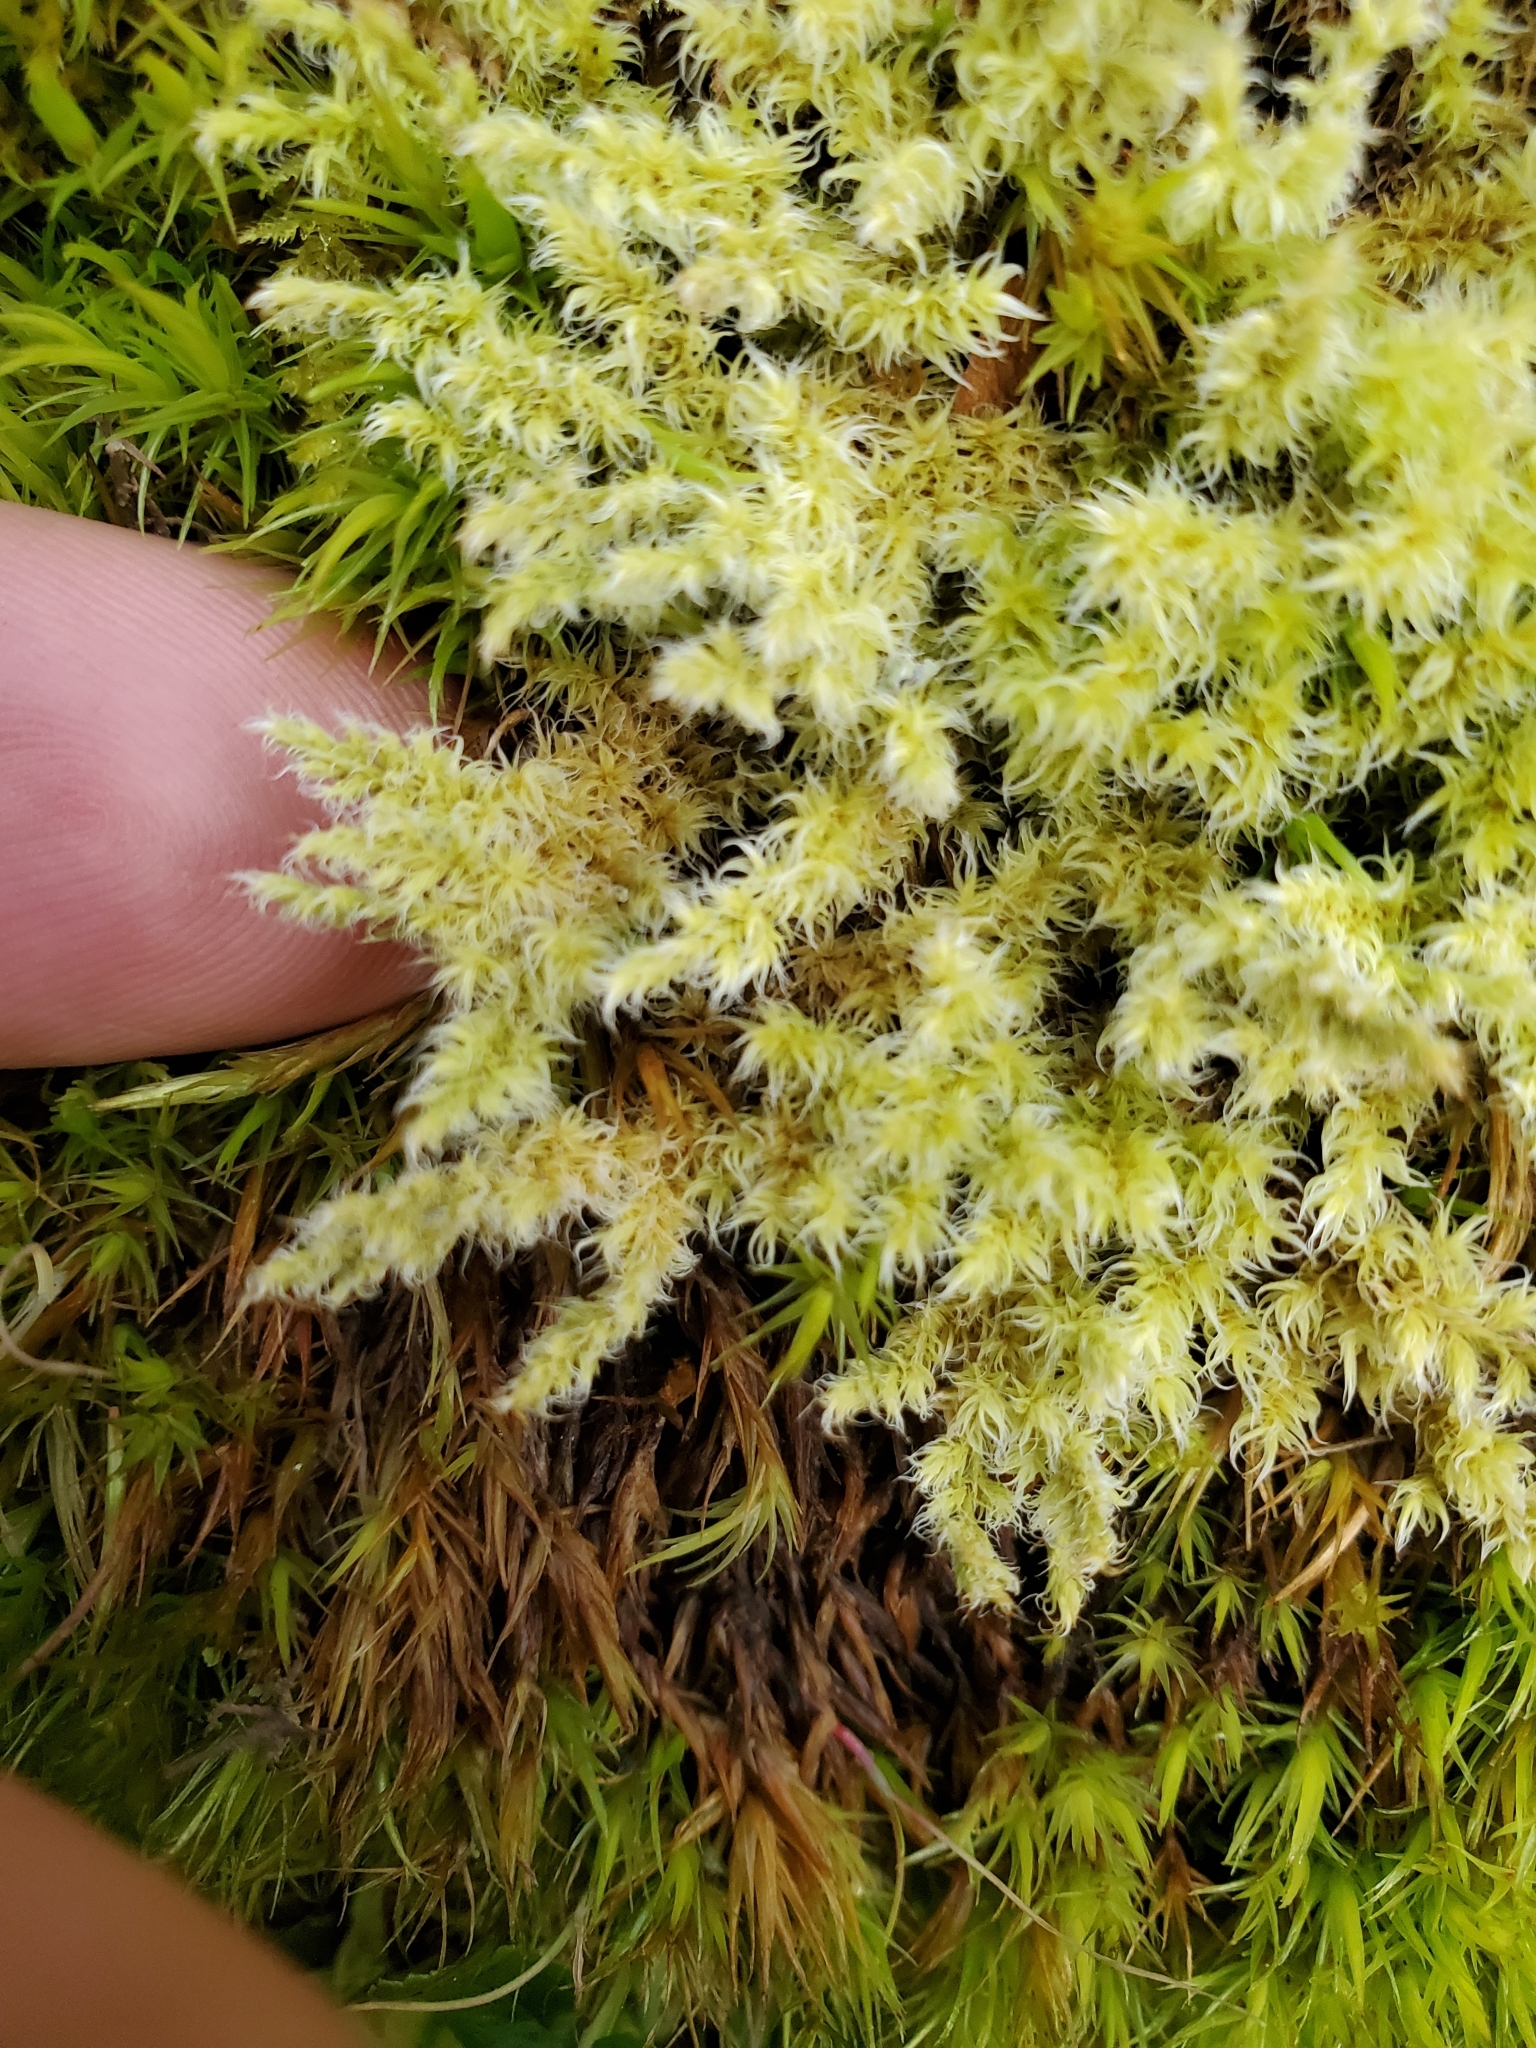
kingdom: Plantae
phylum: Bryophyta
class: Bryopsida
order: Grimmiales
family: Grimmiaceae
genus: Niphotrichum
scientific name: Niphotrichum elongatum
